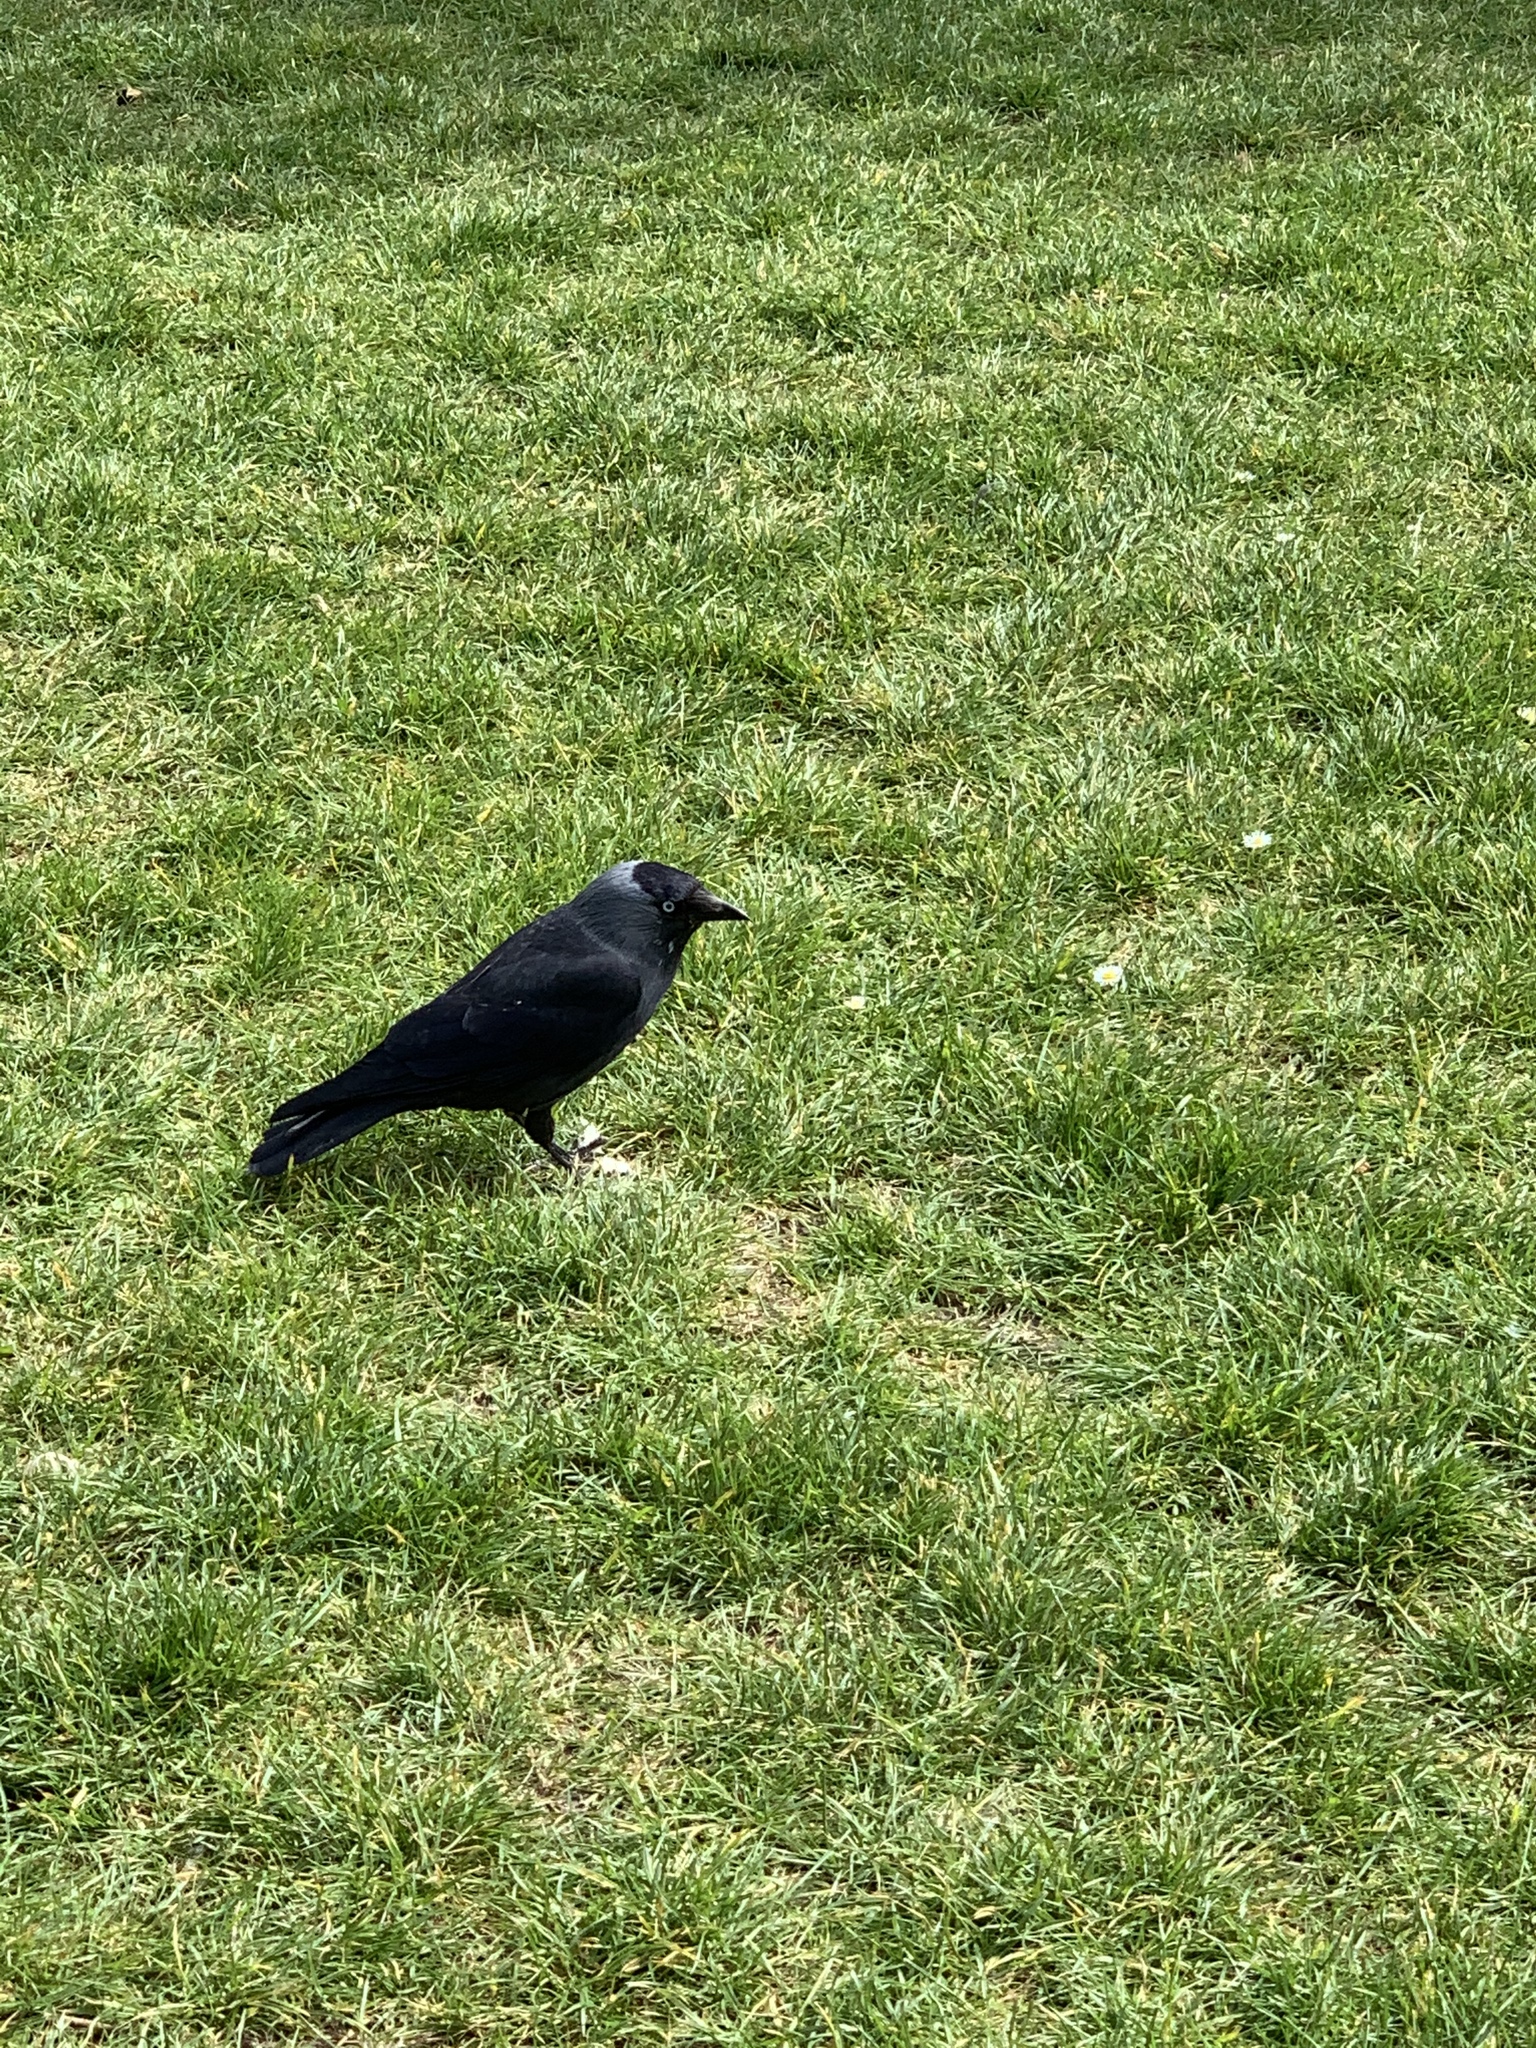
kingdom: Animalia
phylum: Chordata
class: Aves
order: Passeriformes
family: Corvidae
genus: Coloeus
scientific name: Coloeus monedula
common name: Western jackdaw
